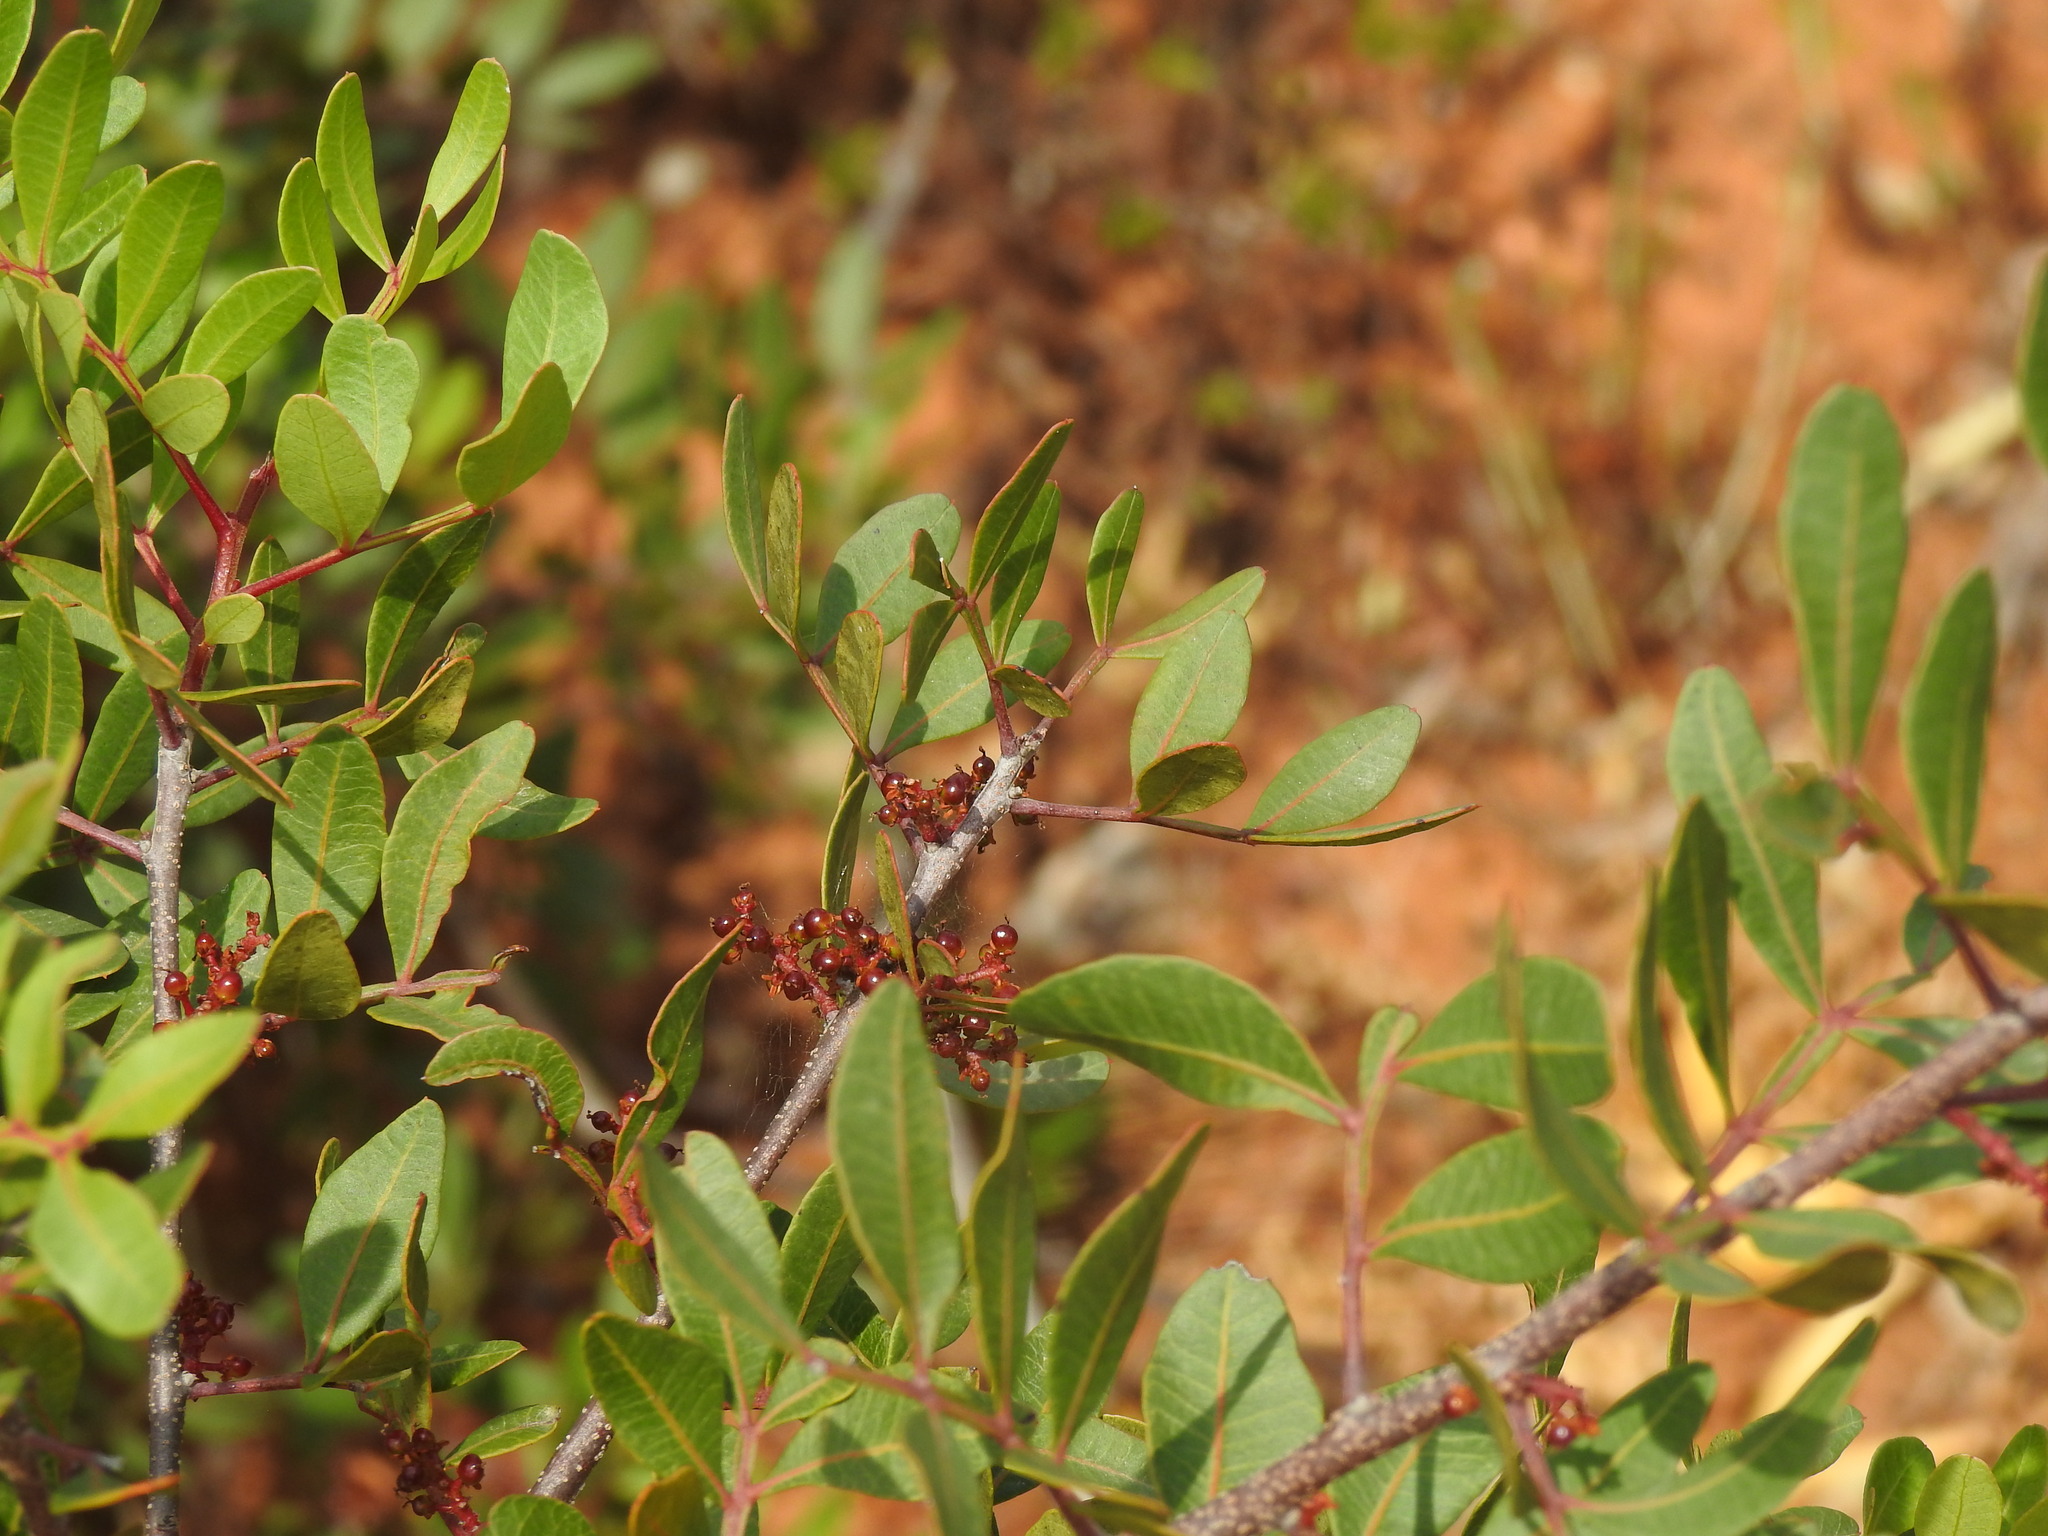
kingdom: Plantae
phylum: Tracheophyta
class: Magnoliopsida
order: Sapindales
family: Anacardiaceae
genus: Pistacia
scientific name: Pistacia lentiscus
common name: Lentisk
